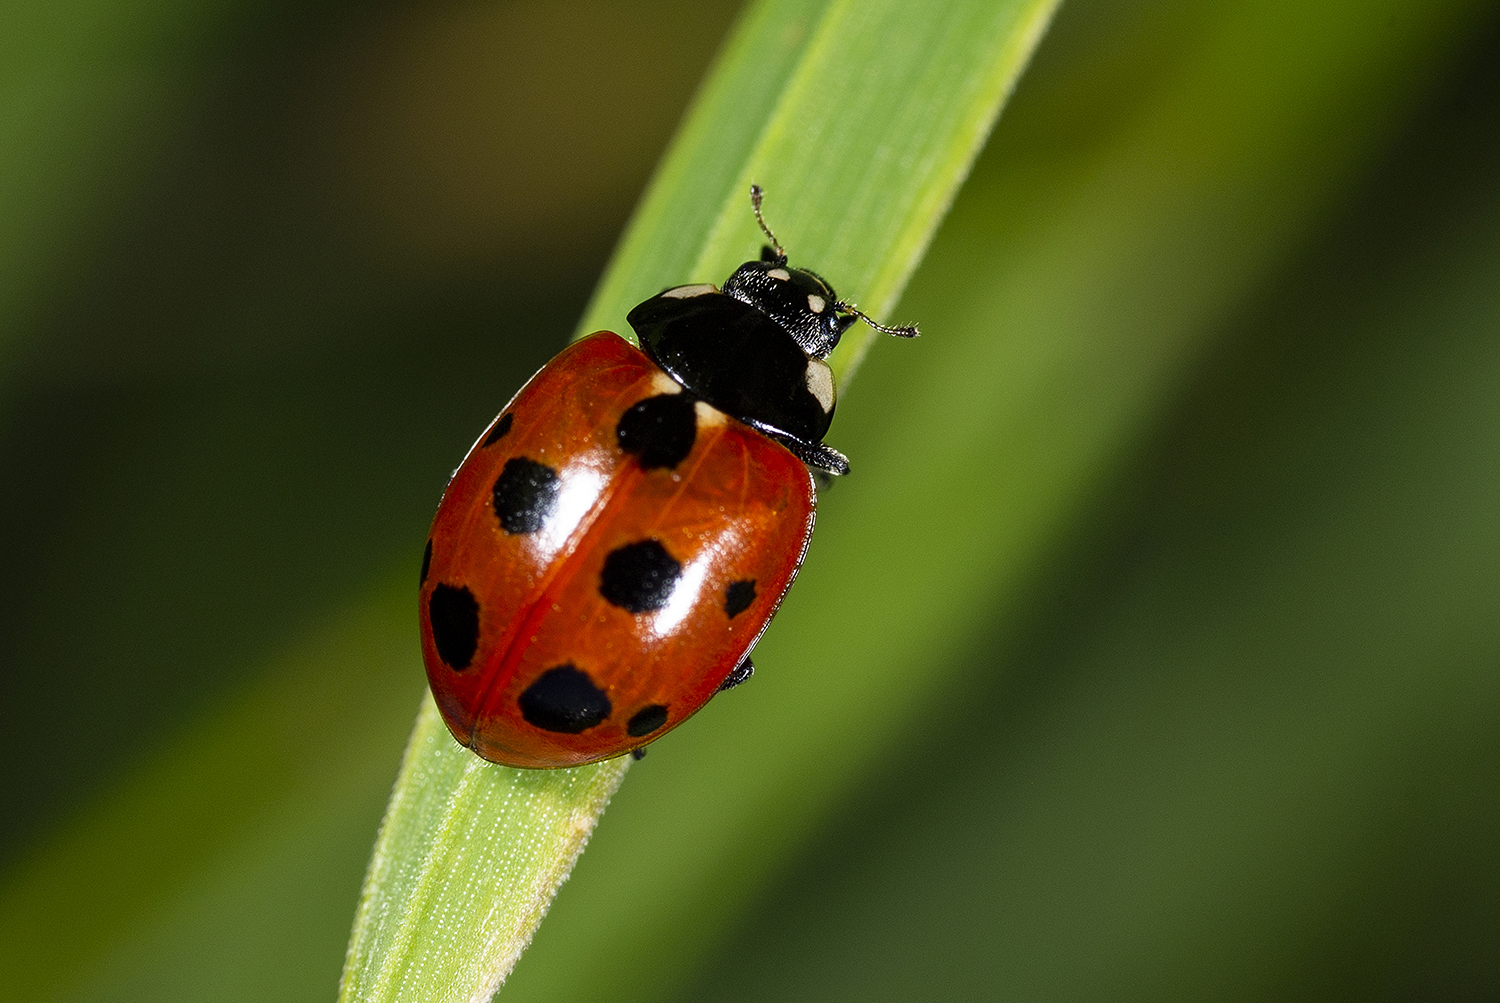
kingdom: Animalia
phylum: Arthropoda
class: Insecta
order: Coleoptera
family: Coccinellidae
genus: Coccinella
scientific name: Coccinella undecimpunctata
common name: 11-spot ladybird
